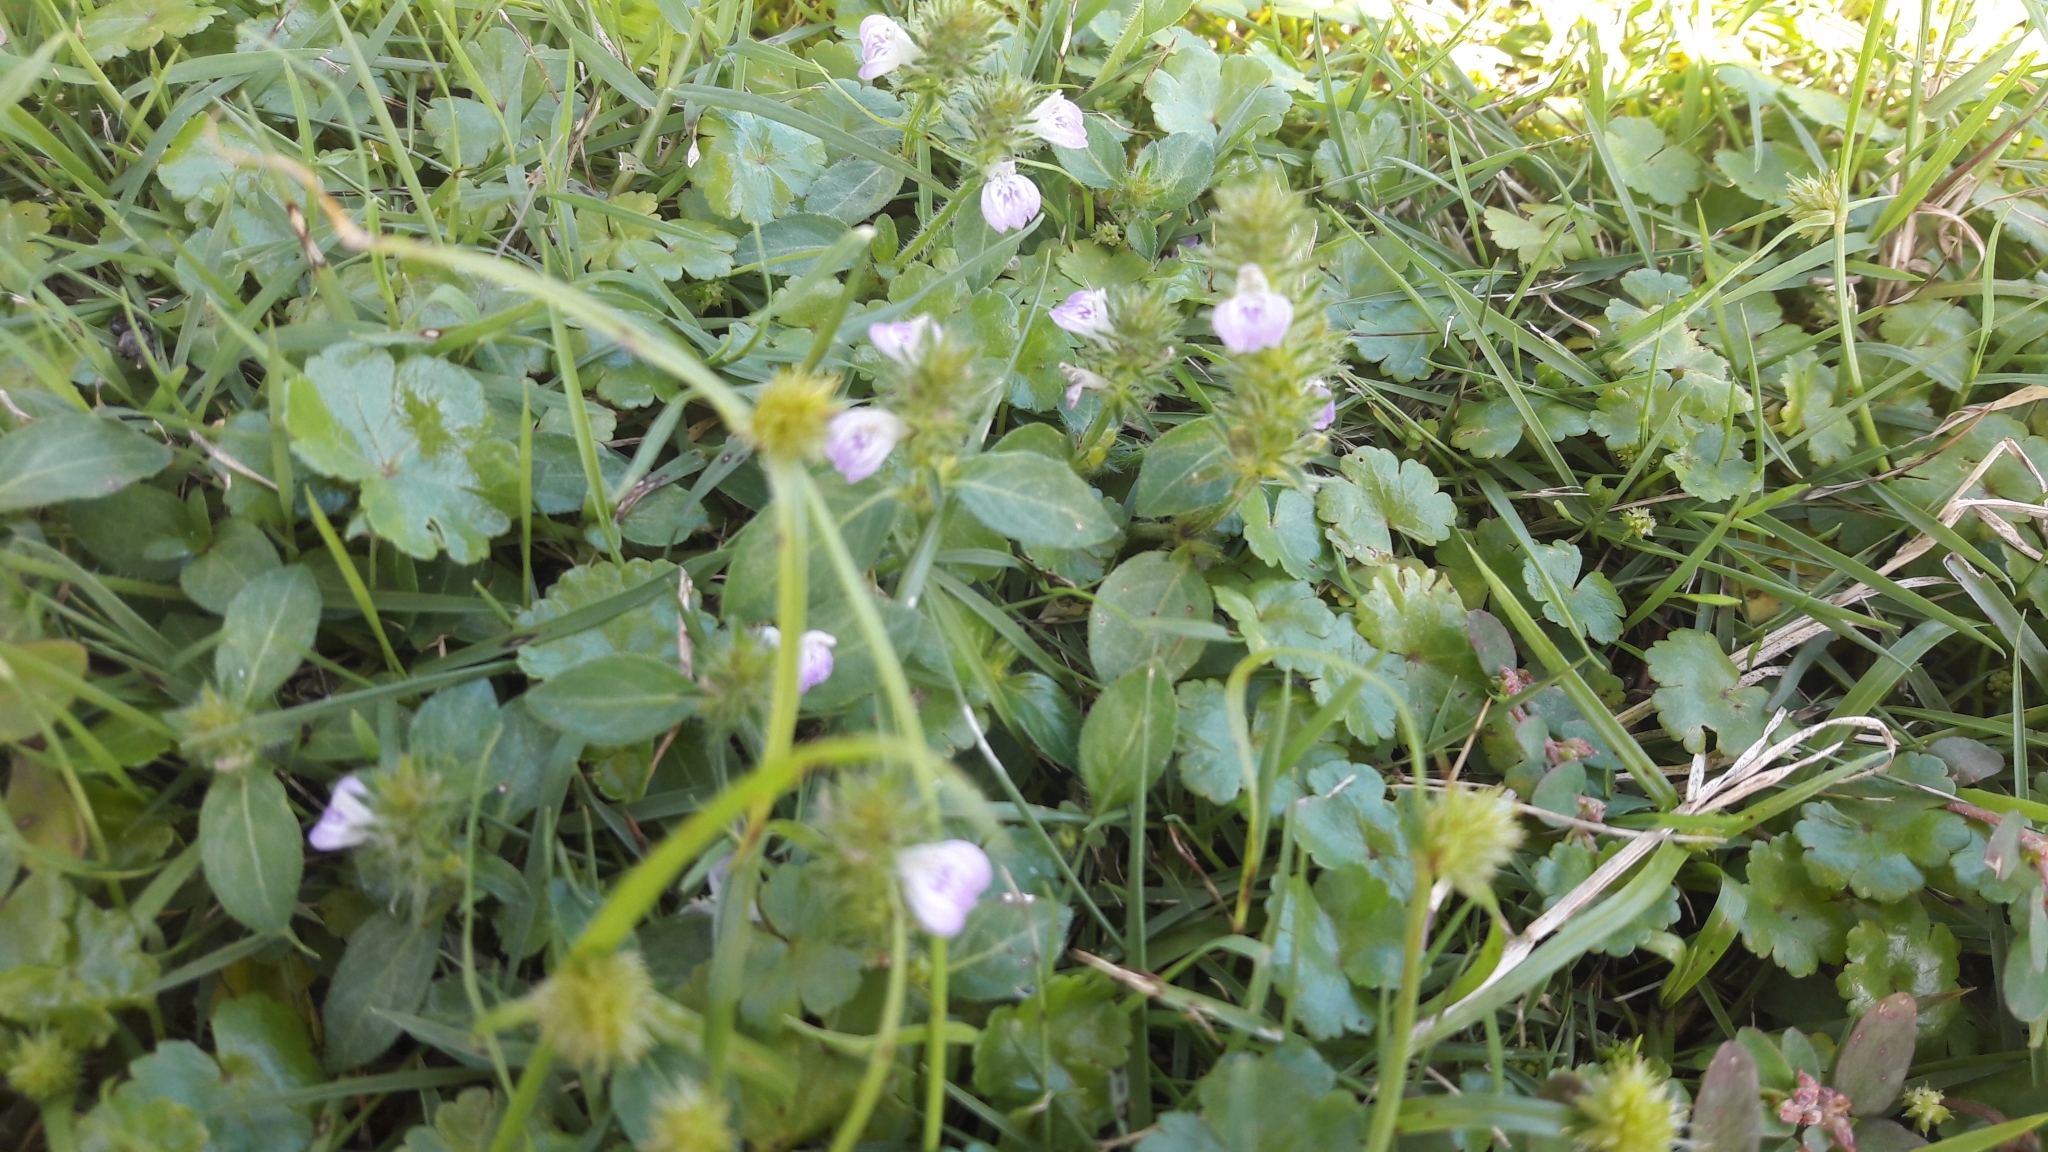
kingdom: Plantae
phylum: Tracheophyta
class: Magnoliopsida
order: Lamiales
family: Acanthaceae
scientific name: Acanthaceae
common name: Acanthaceae
